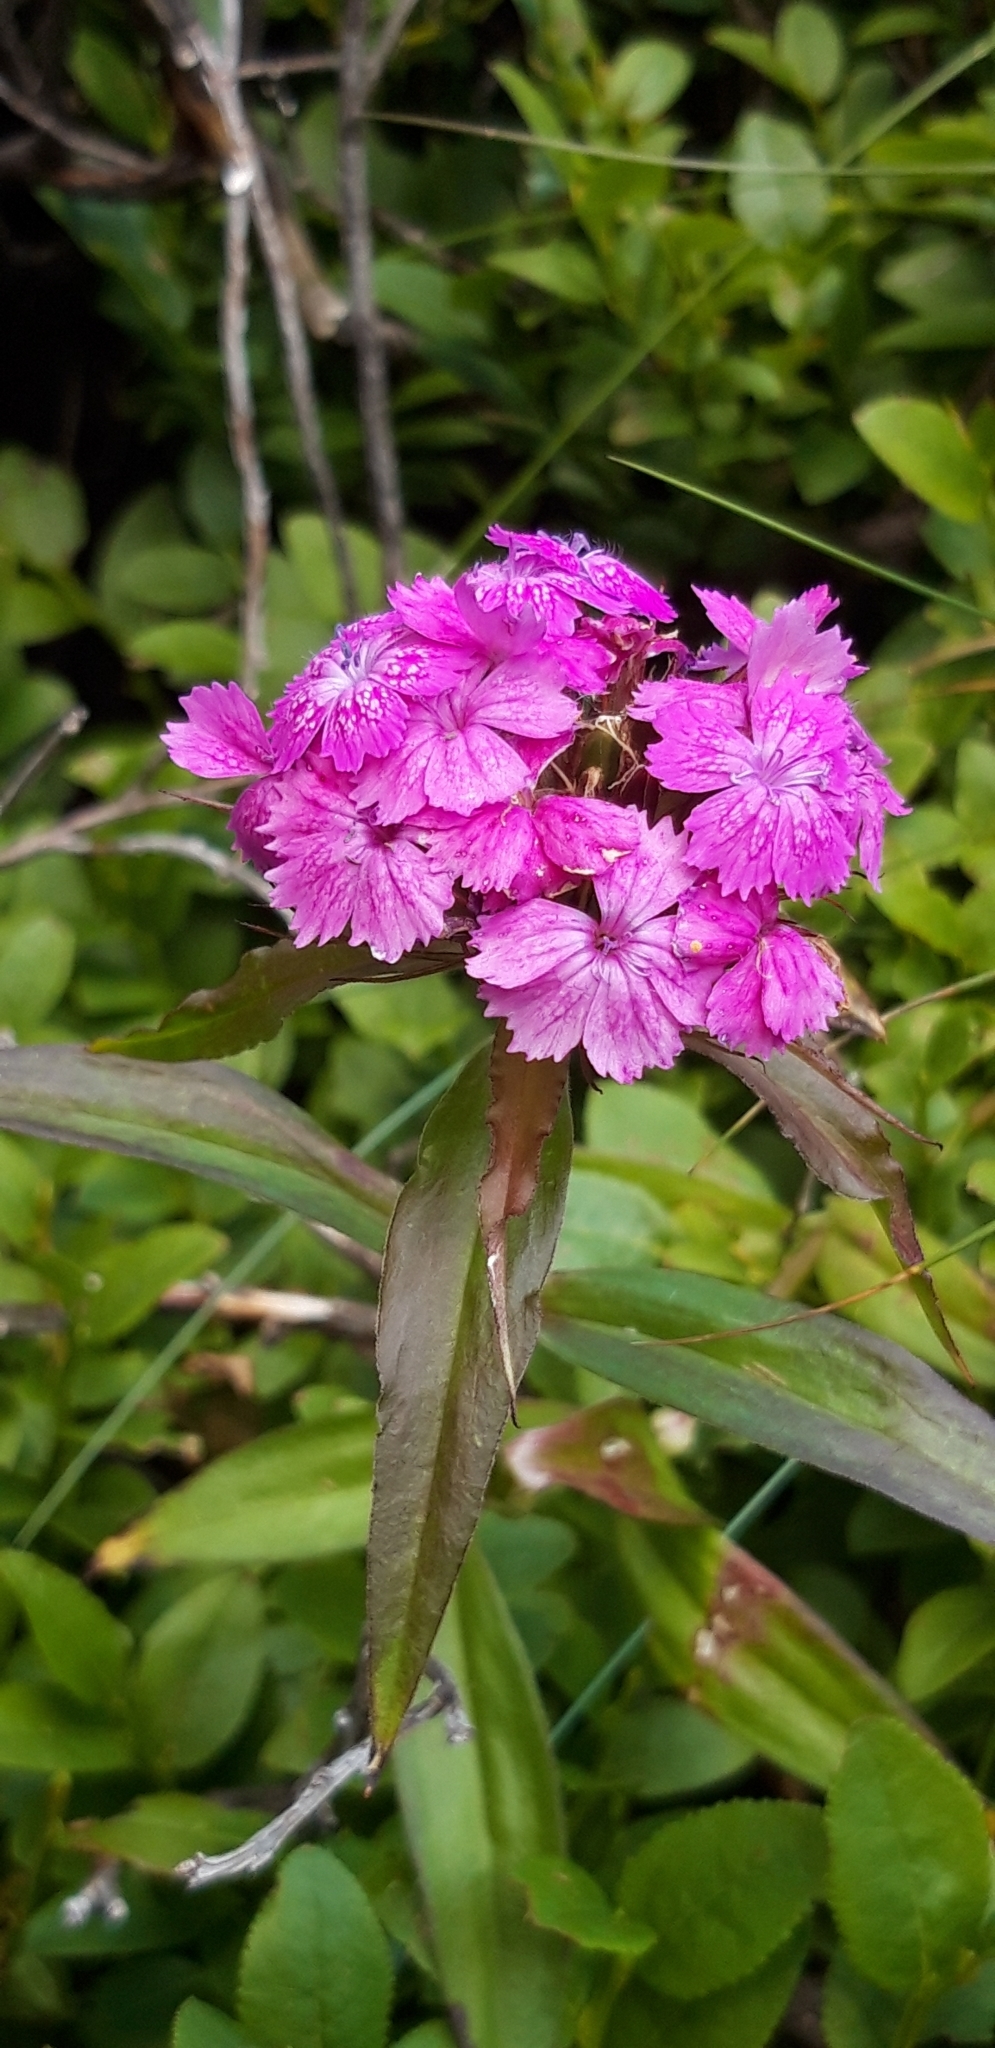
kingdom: Plantae
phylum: Tracheophyta
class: Magnoliopsida
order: Caryophyllales
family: Caryophyllaceae
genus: Dianthus
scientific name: Dianthus
